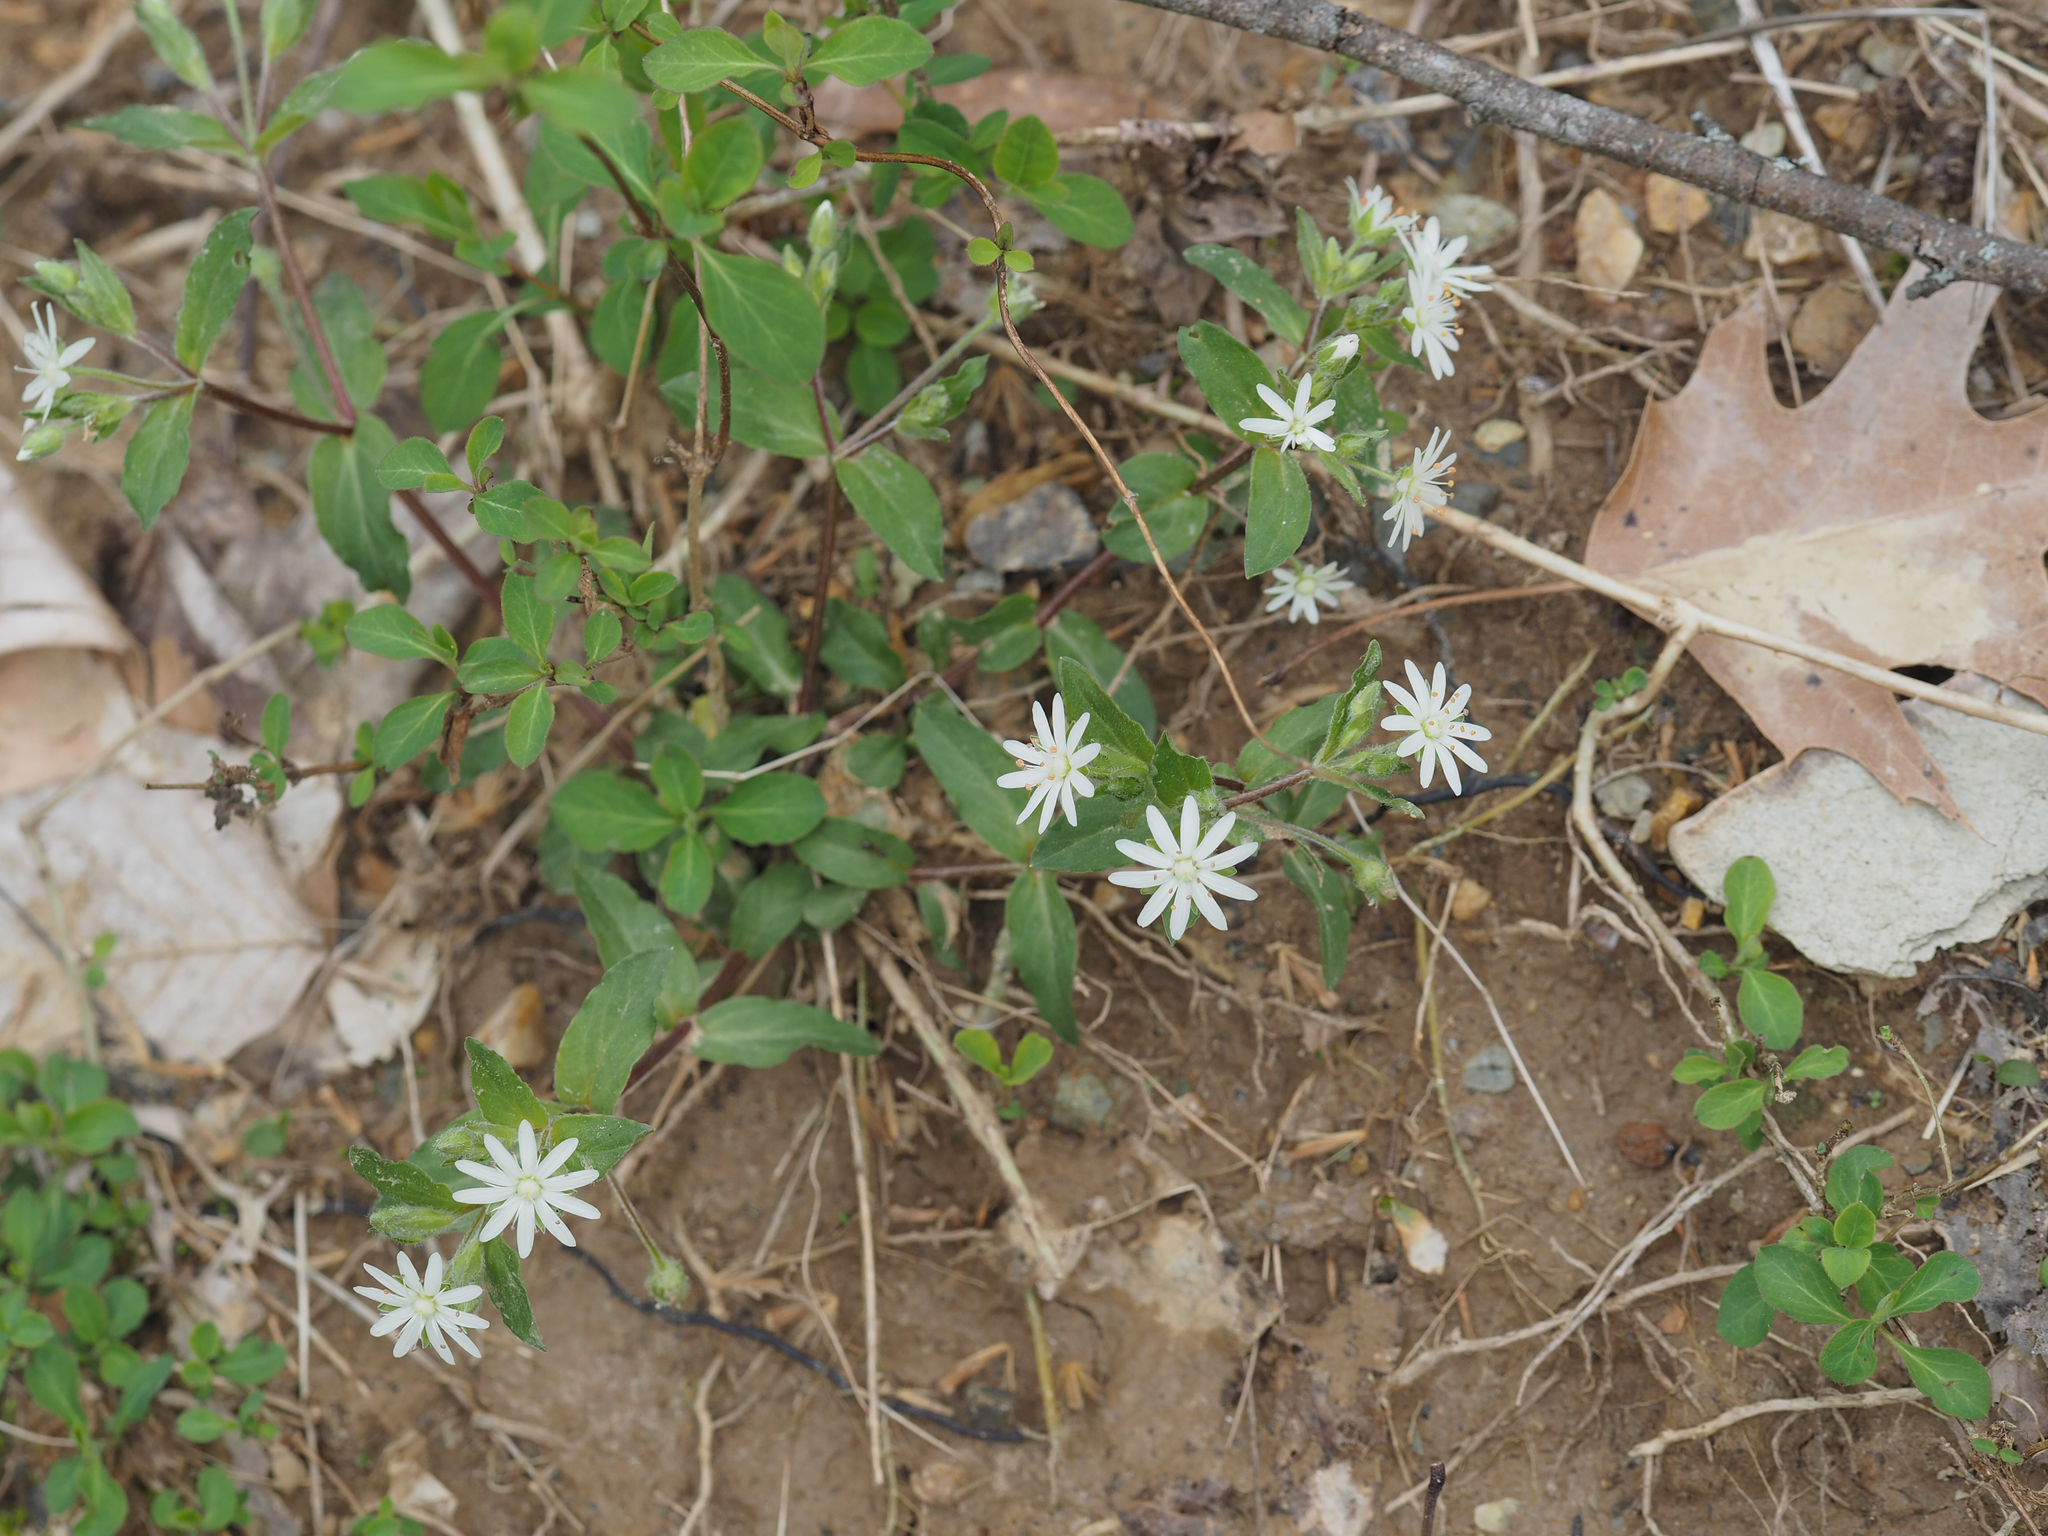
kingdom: Plantae
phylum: Tracheophyta
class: Magnoliopsida
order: Caryophyllales
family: Caryophyllaceae
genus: Stellaria
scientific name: Stellaria pubera
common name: Star chickweed
